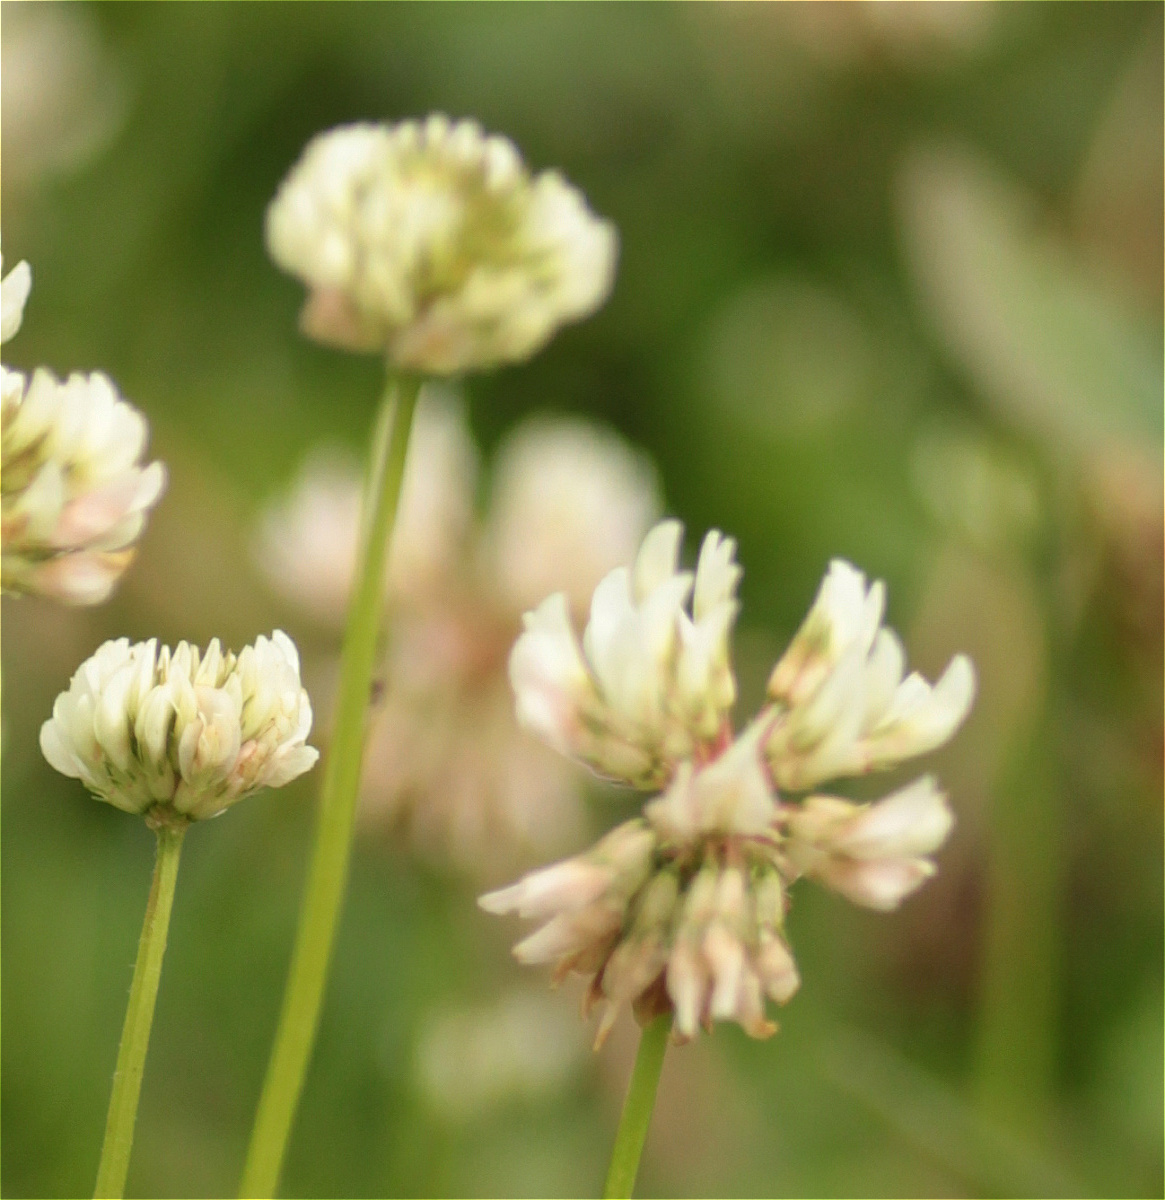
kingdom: Plantae
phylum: Tracheophyta
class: Magnoliopsida
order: Fabales
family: Fabaceae
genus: Trifolium
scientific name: Trifolium repens
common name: White clover
